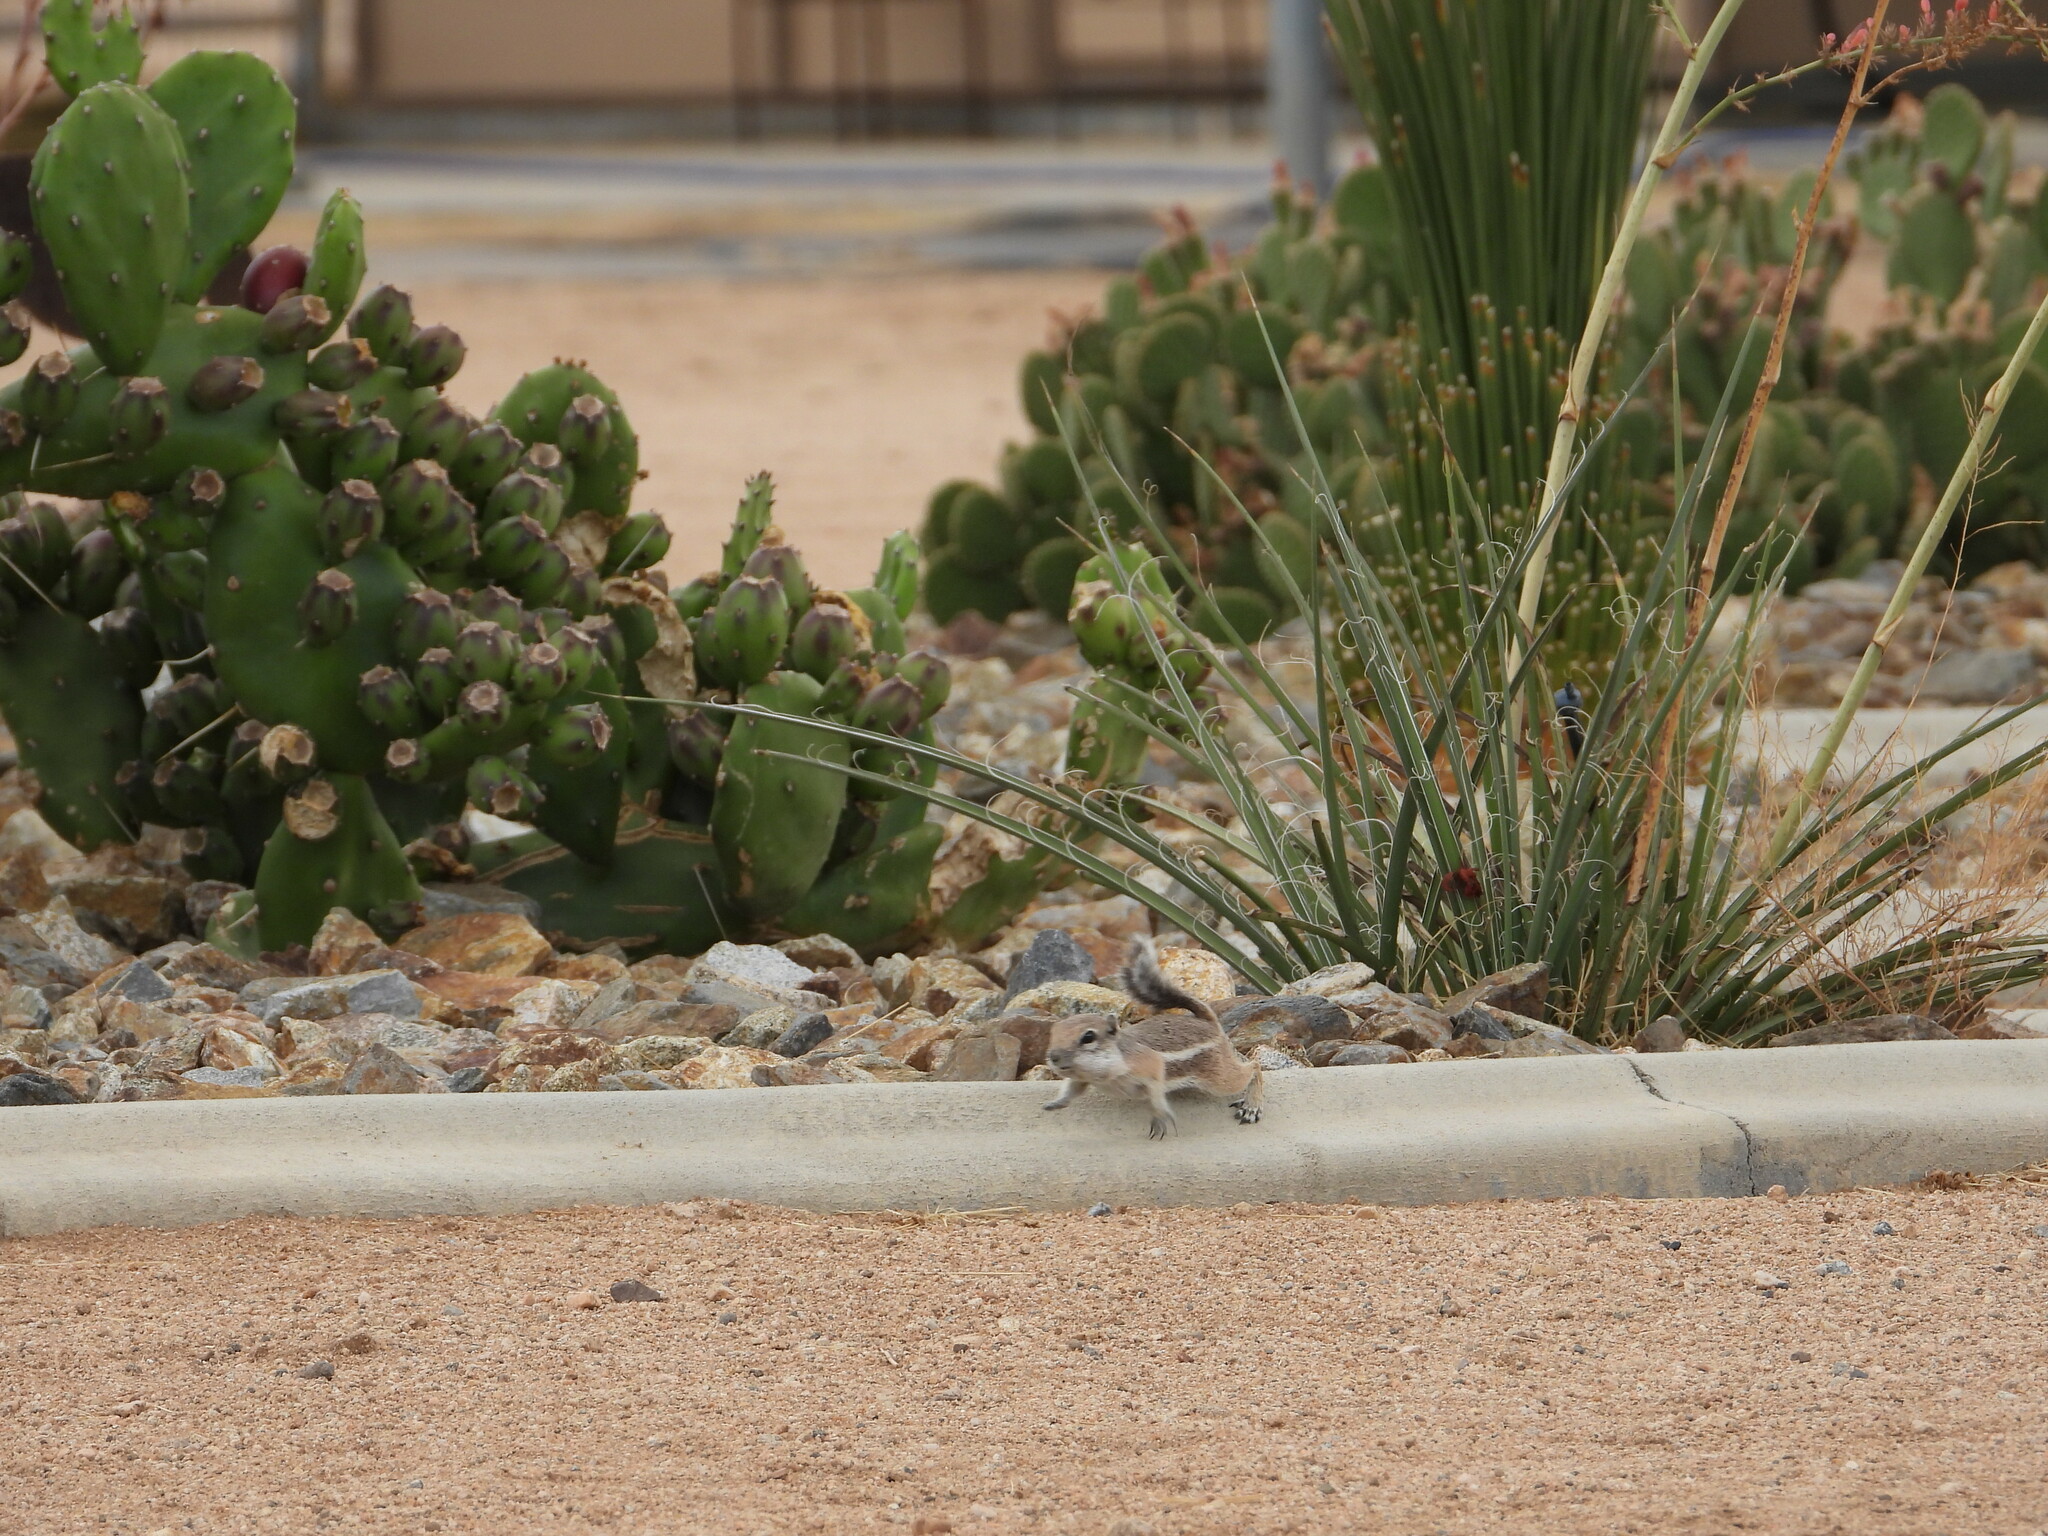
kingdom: Animalia
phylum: Chordata
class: Mammalia
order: Rodentia
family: Sciuridae
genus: Ammospermophilus
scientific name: Ammospermophilus leucurus
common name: White-tailed antelope squirrel
